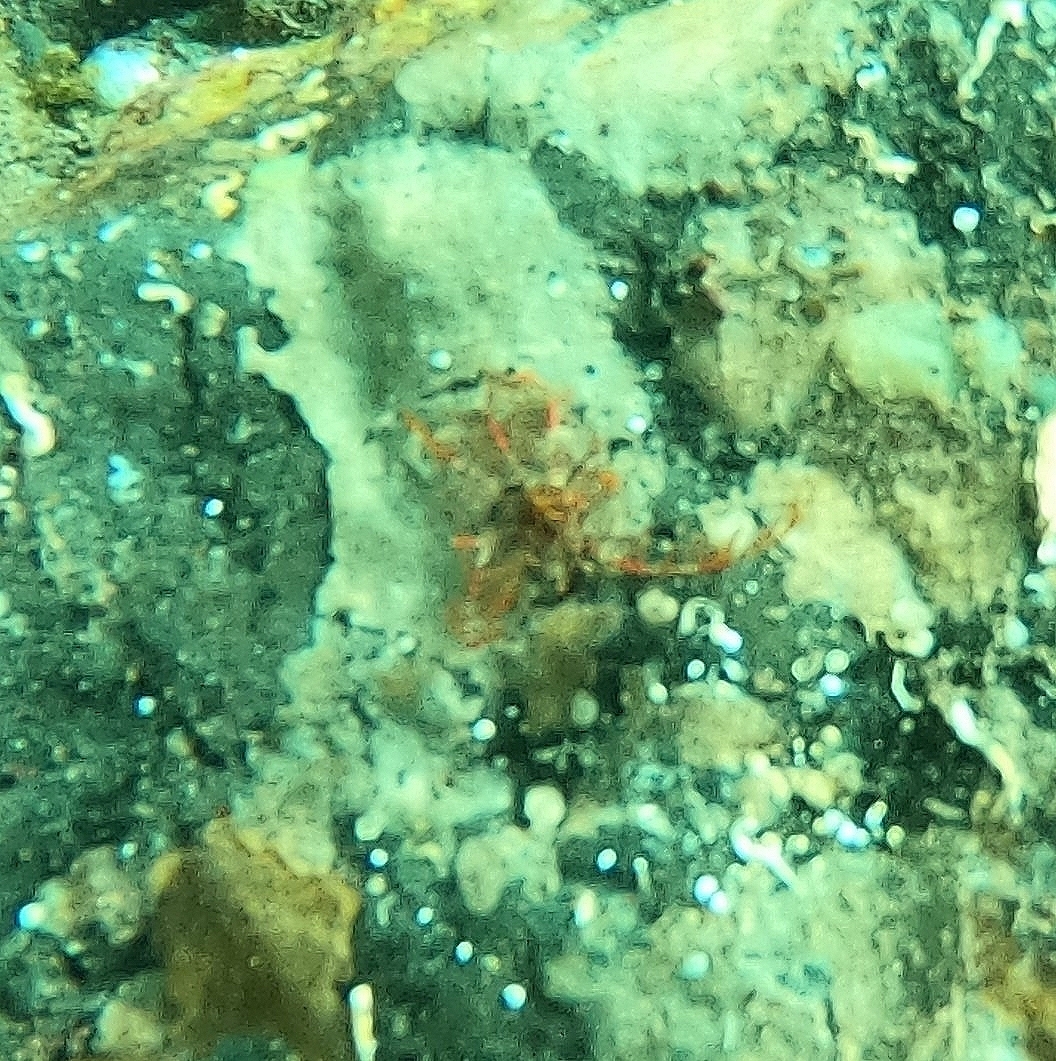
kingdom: Animalia
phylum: Echinodermata
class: Crinoidea
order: Comatulida
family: Antedonidae
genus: Antedon
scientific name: Antedon bifida
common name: Rosy feather-star
